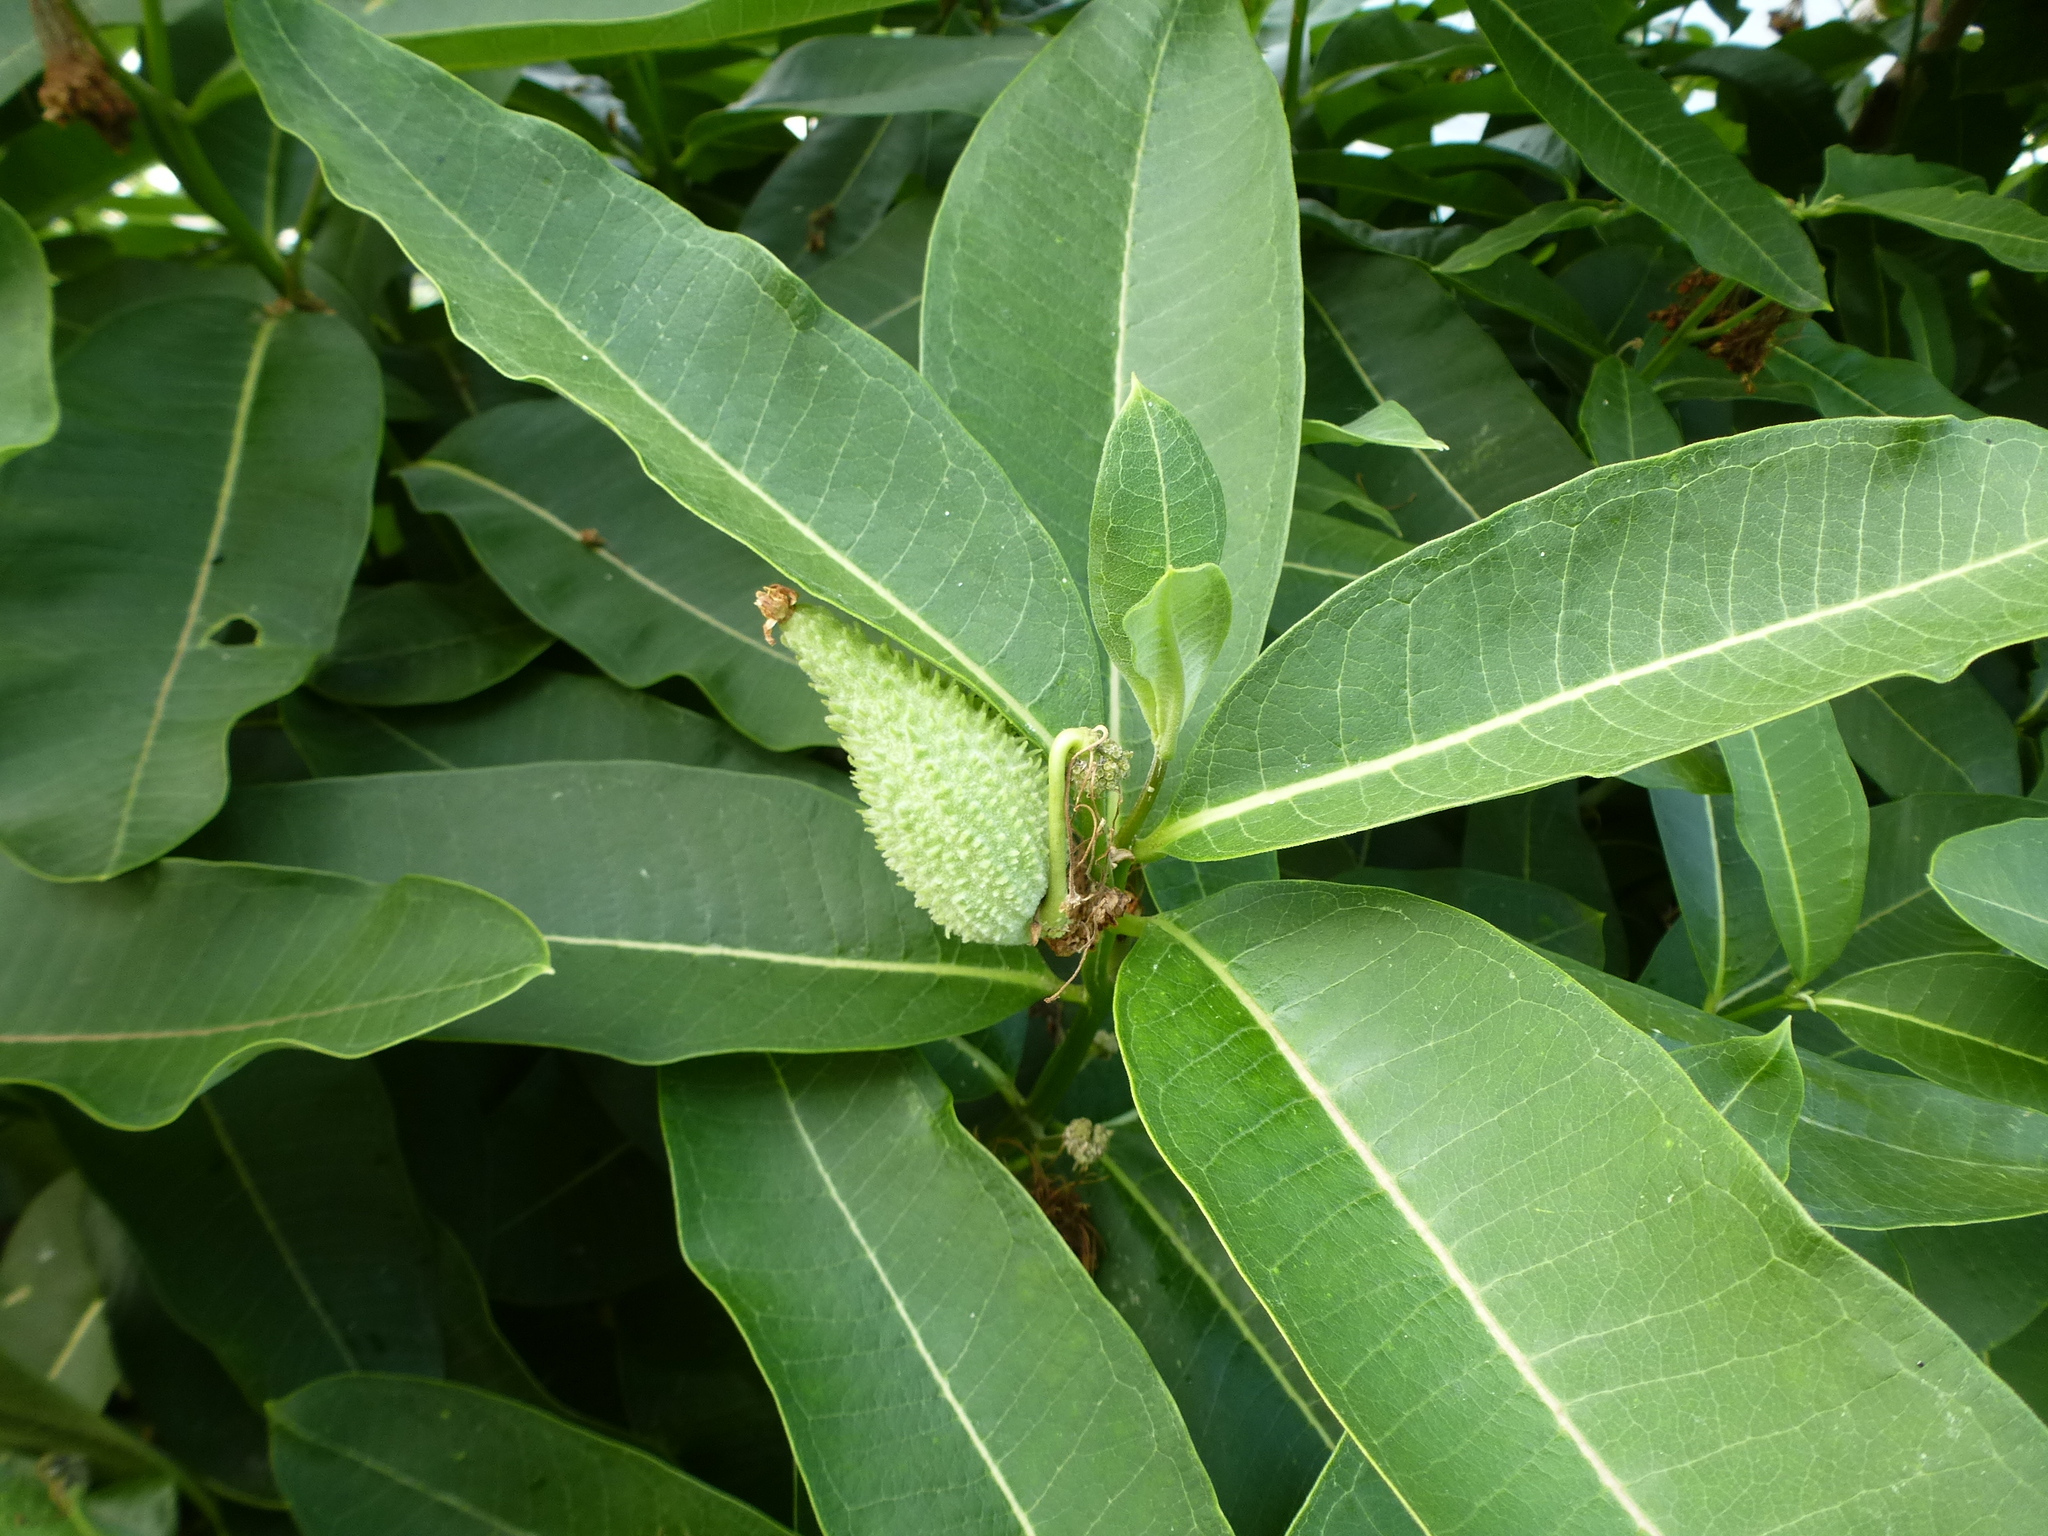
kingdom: Plantae
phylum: Tracheophyta
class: Magnoliopsida
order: Gentianales
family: Apocynaceae
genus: Asclepias
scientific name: Asclepias syriaca
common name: Common milkweed
